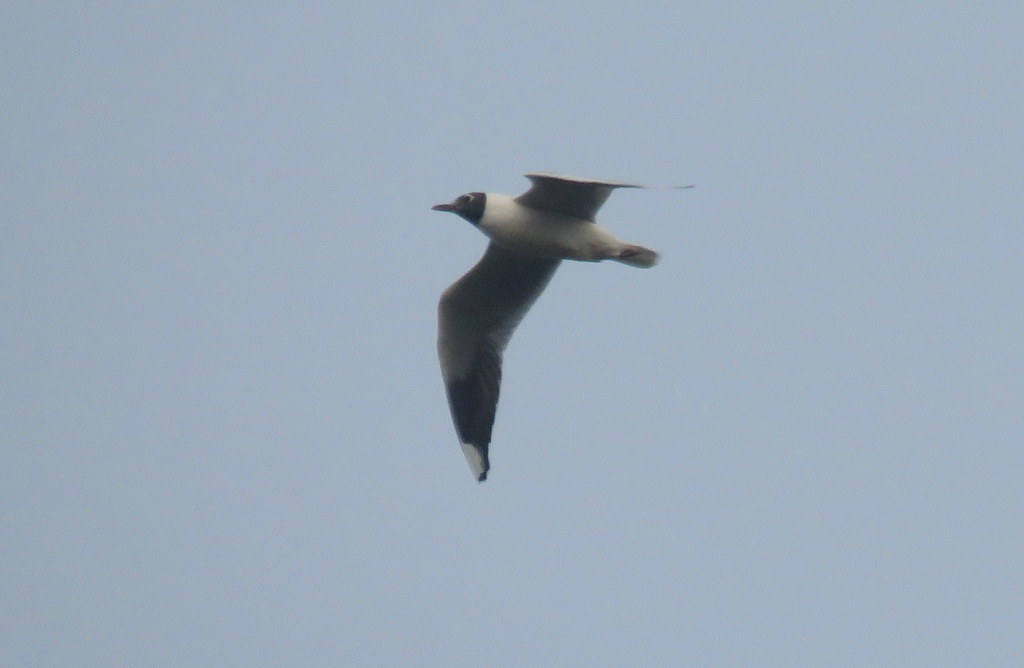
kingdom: Animalia
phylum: Chordata
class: Aves
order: Charadriiformes
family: Laridae
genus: Chroicocephalus
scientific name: Chroicocephalus maculipennis
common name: Brown-hooded gull
